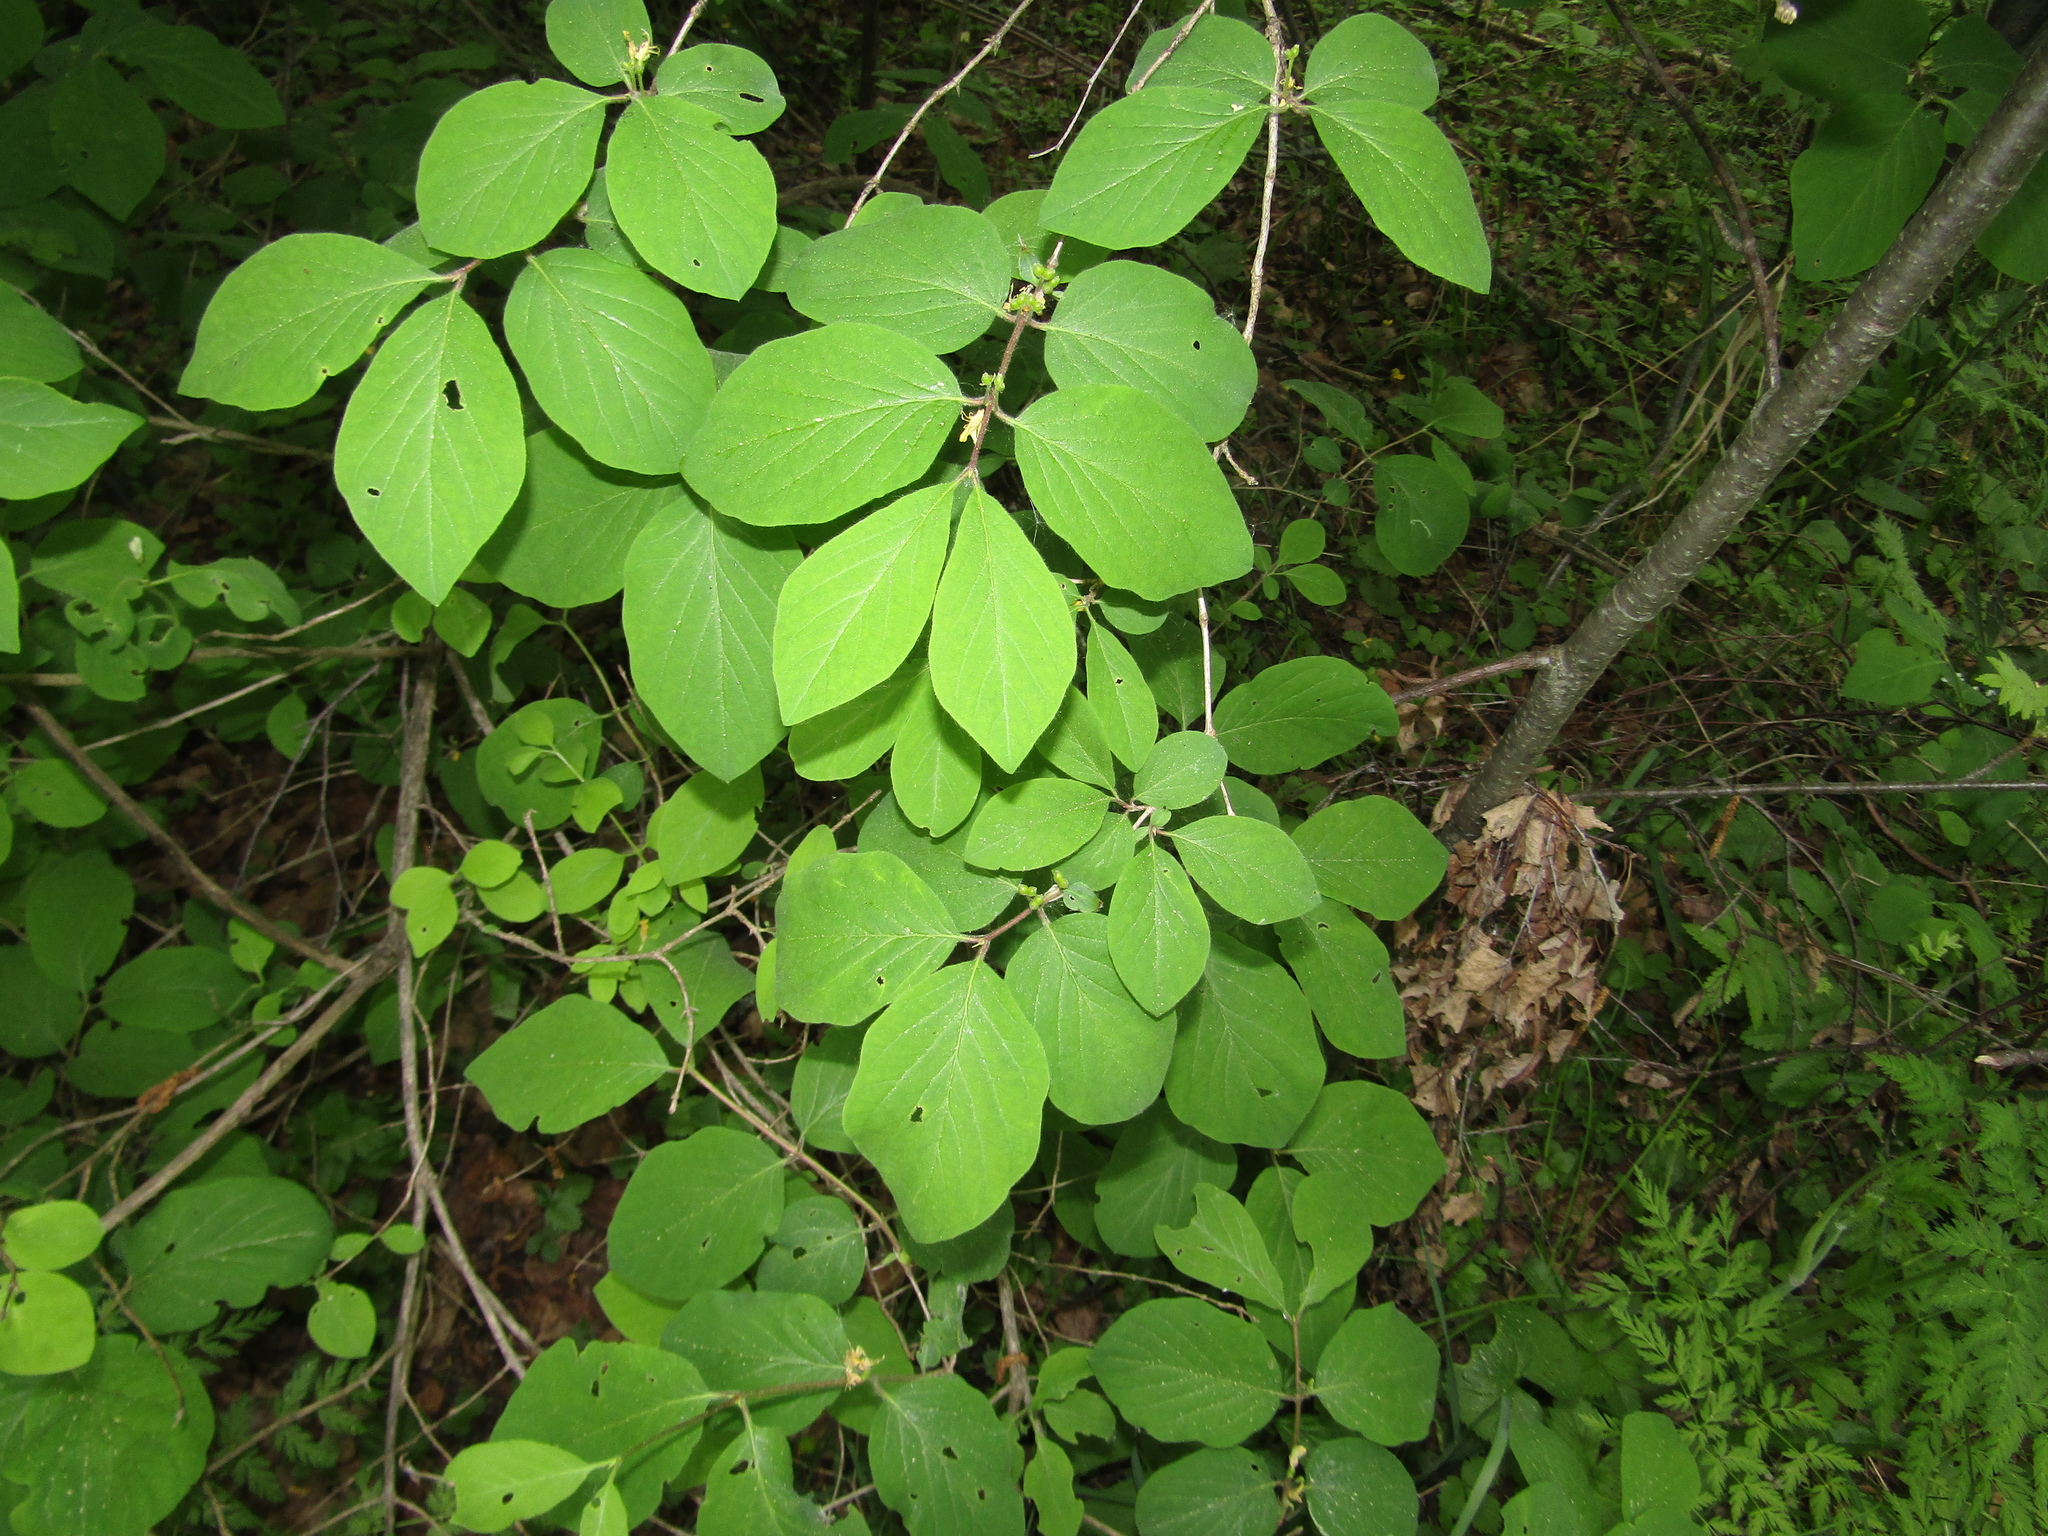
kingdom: Plantae
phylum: Tracheophyta
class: Magnoliopsida
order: Dipsacales
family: Caprifoliaceae
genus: Lonicera
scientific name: Lonicera xylosteum
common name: Fly honeysuckle
